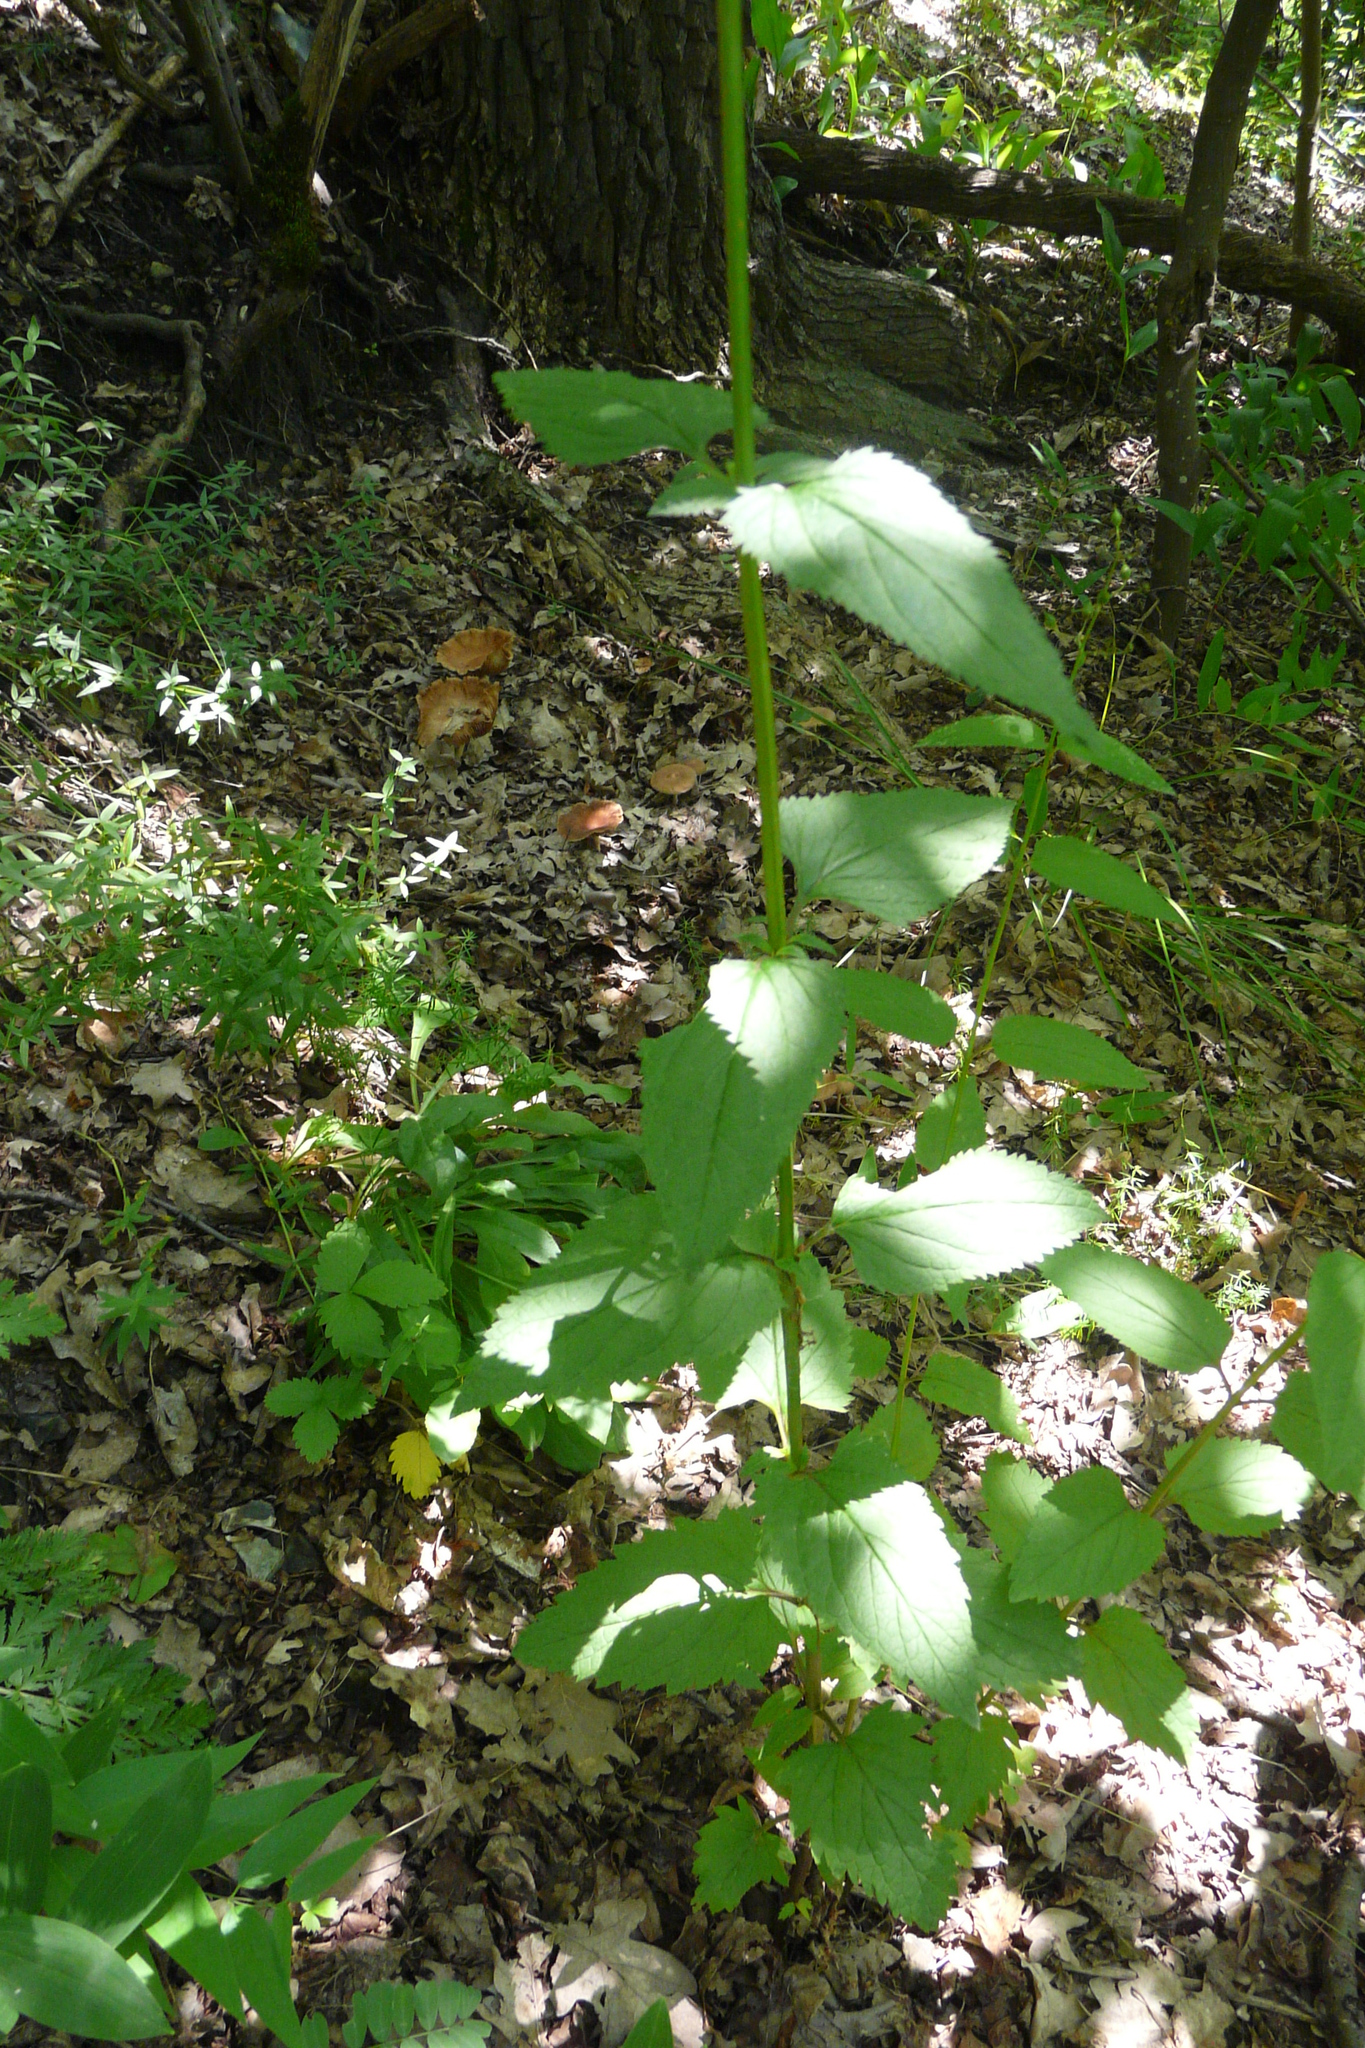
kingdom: Plantae
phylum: Tracheophyta
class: Magnoliopsida
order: Lamiales
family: Scrophulariaceae
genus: Scrophularia
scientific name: Scrophularia nodosa
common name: Common figwort
